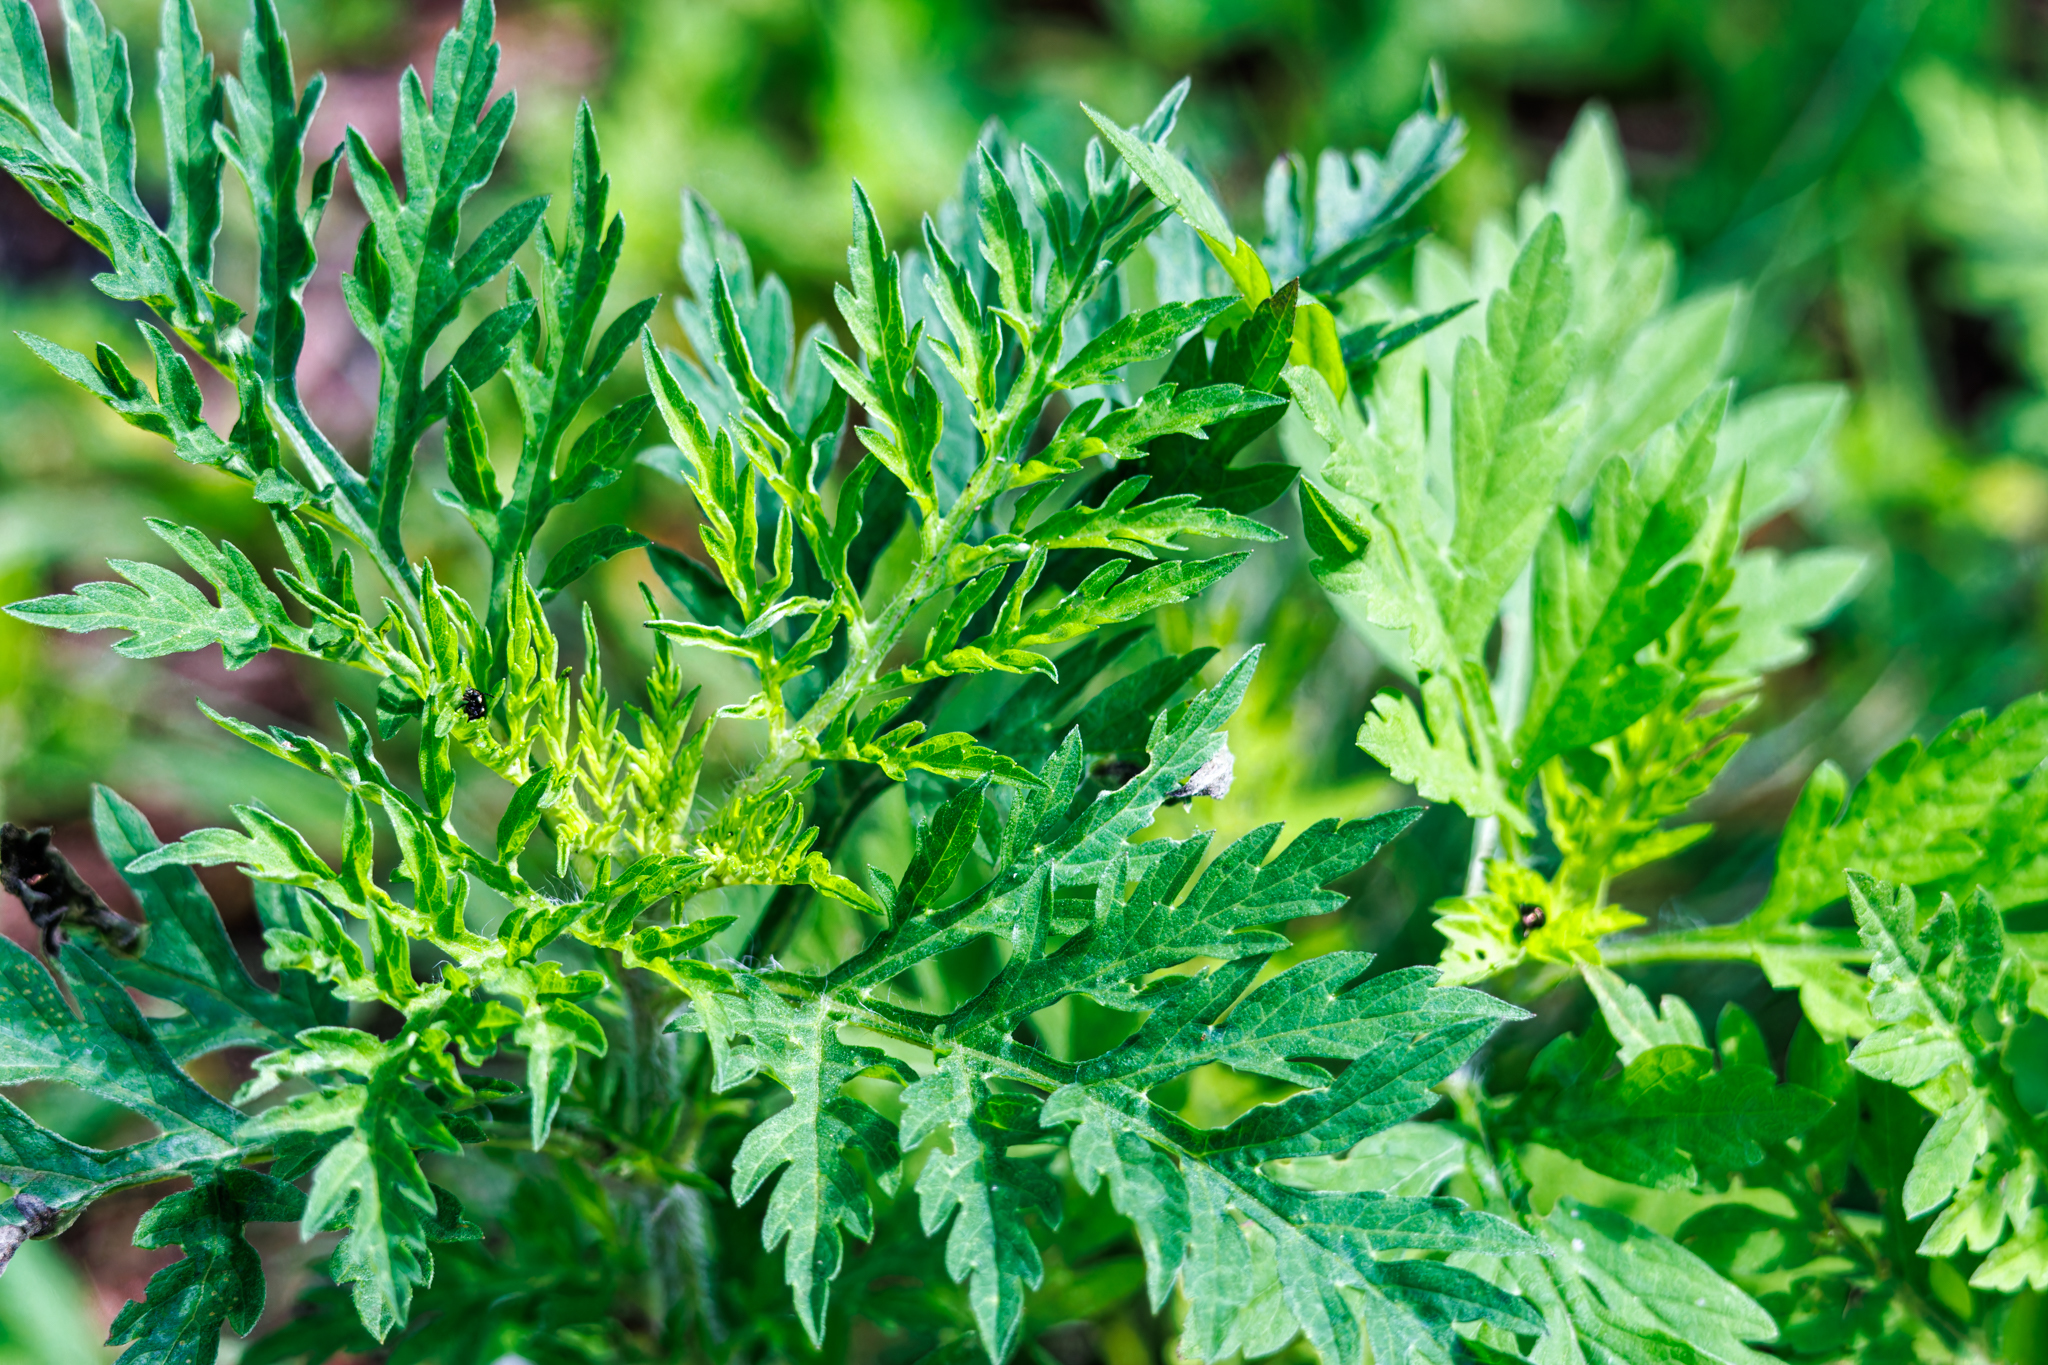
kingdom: Plantae
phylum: Tracheophyta
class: Magnoliopsida
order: Asterales
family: Asteraceae
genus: Ambrosia
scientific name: Ambrosia artemisiifolia
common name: Annual ragweed
